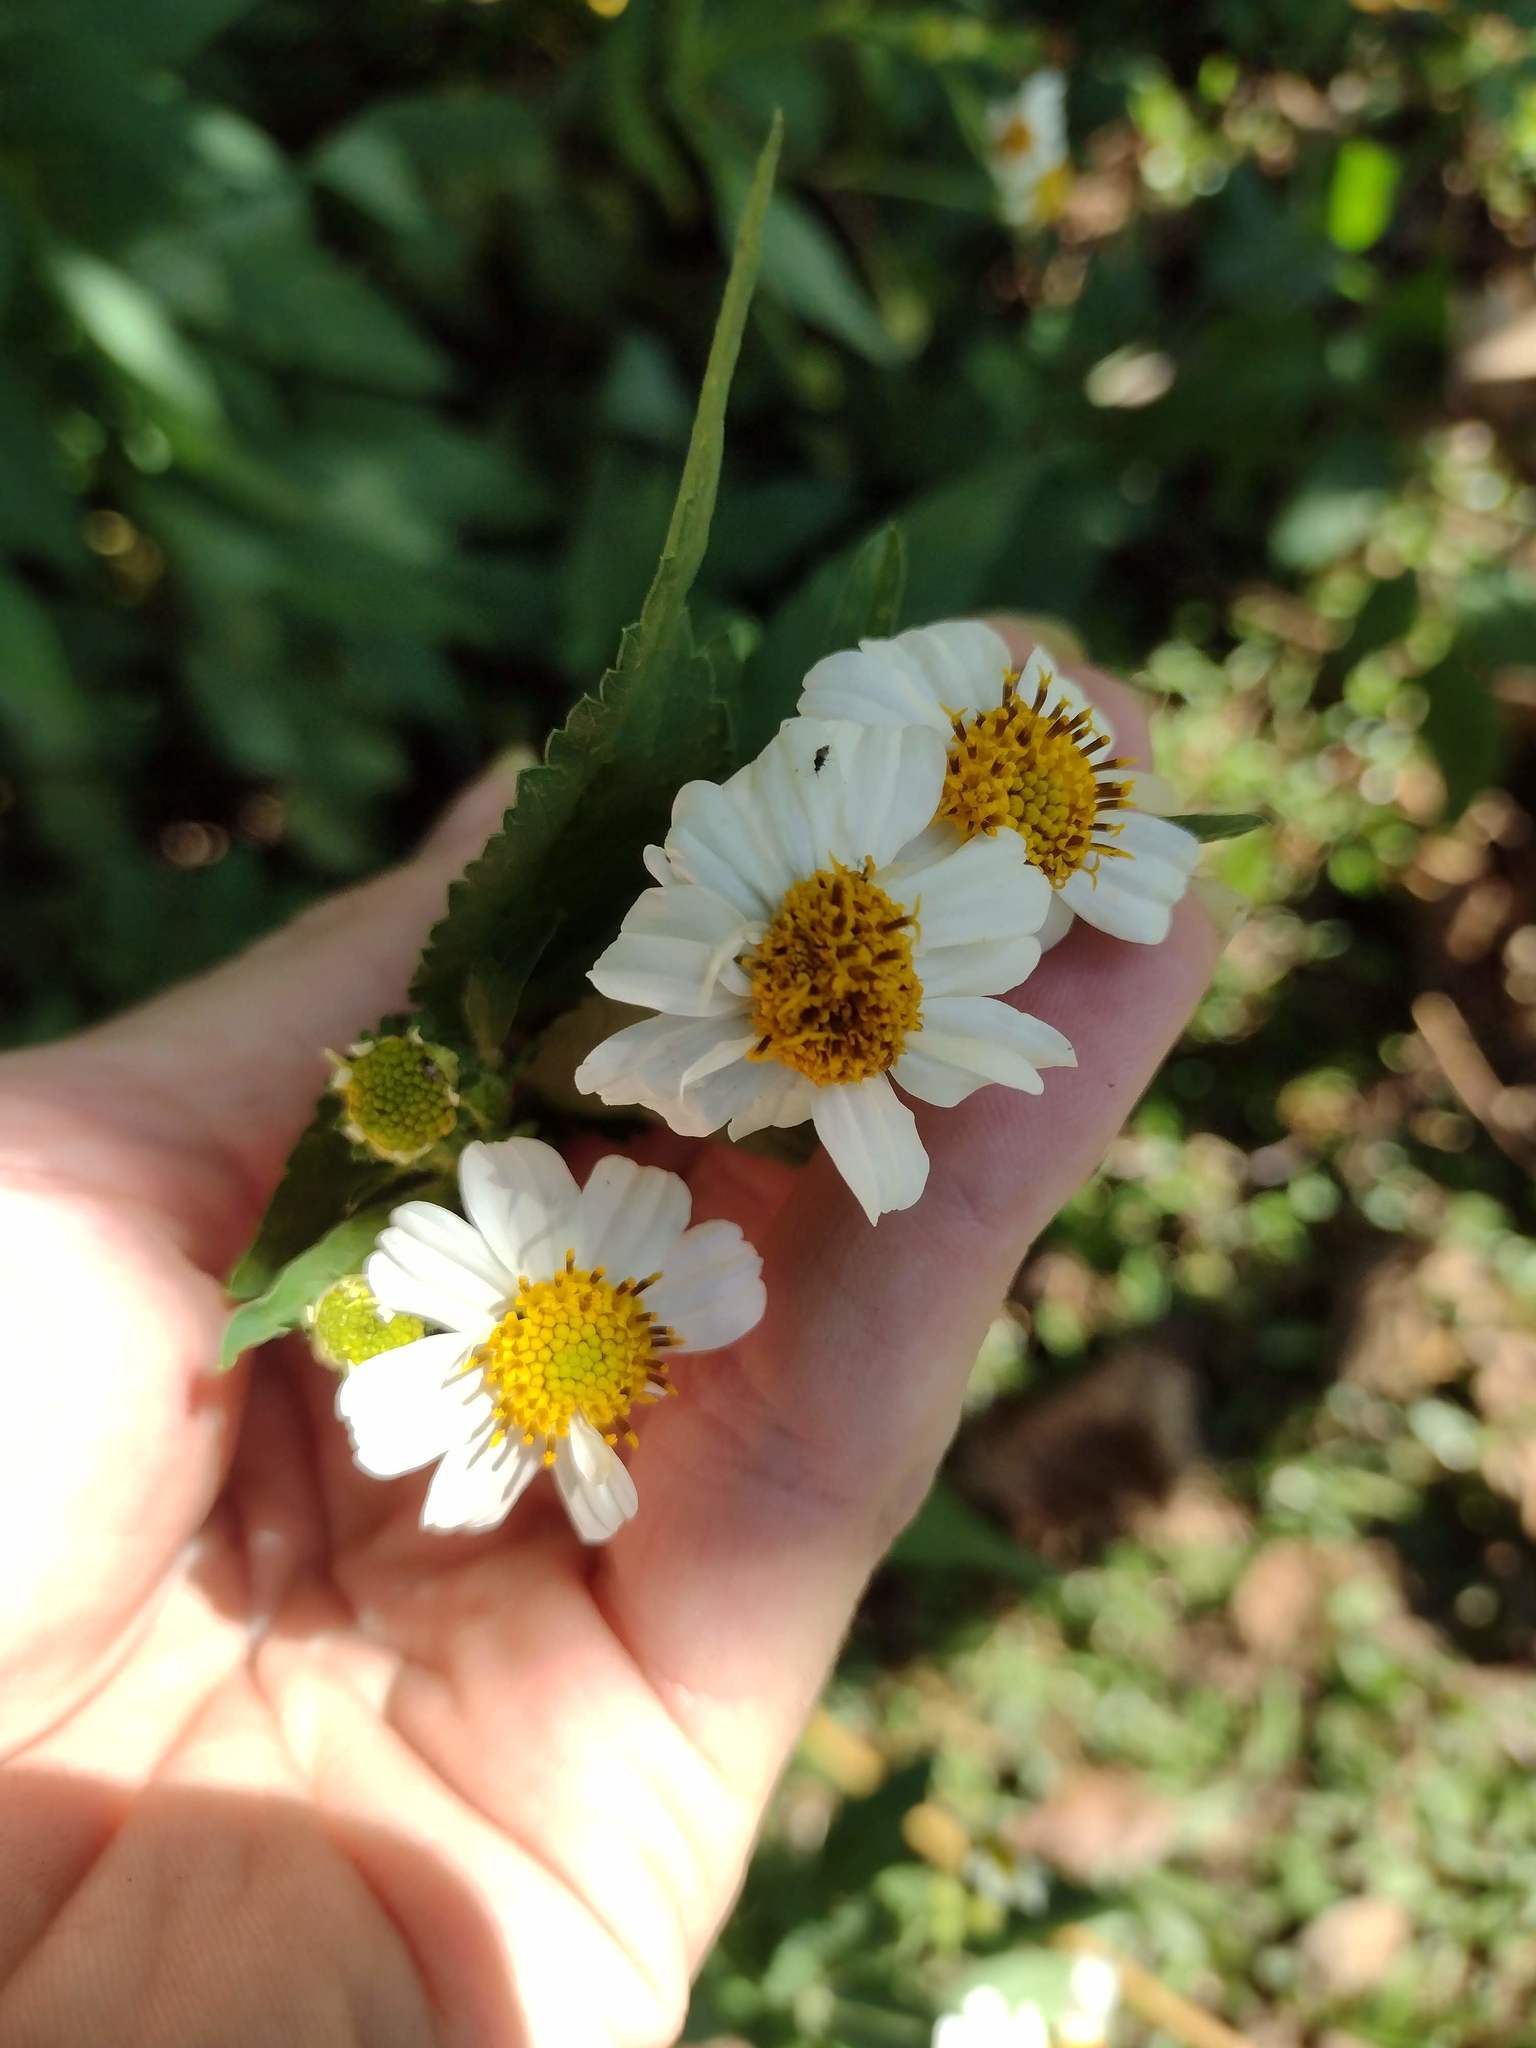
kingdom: Plantae
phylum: Tracheophyta
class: Magnoliopsida
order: Asterales
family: Asteraceae
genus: Bidens
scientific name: Bidens alba
